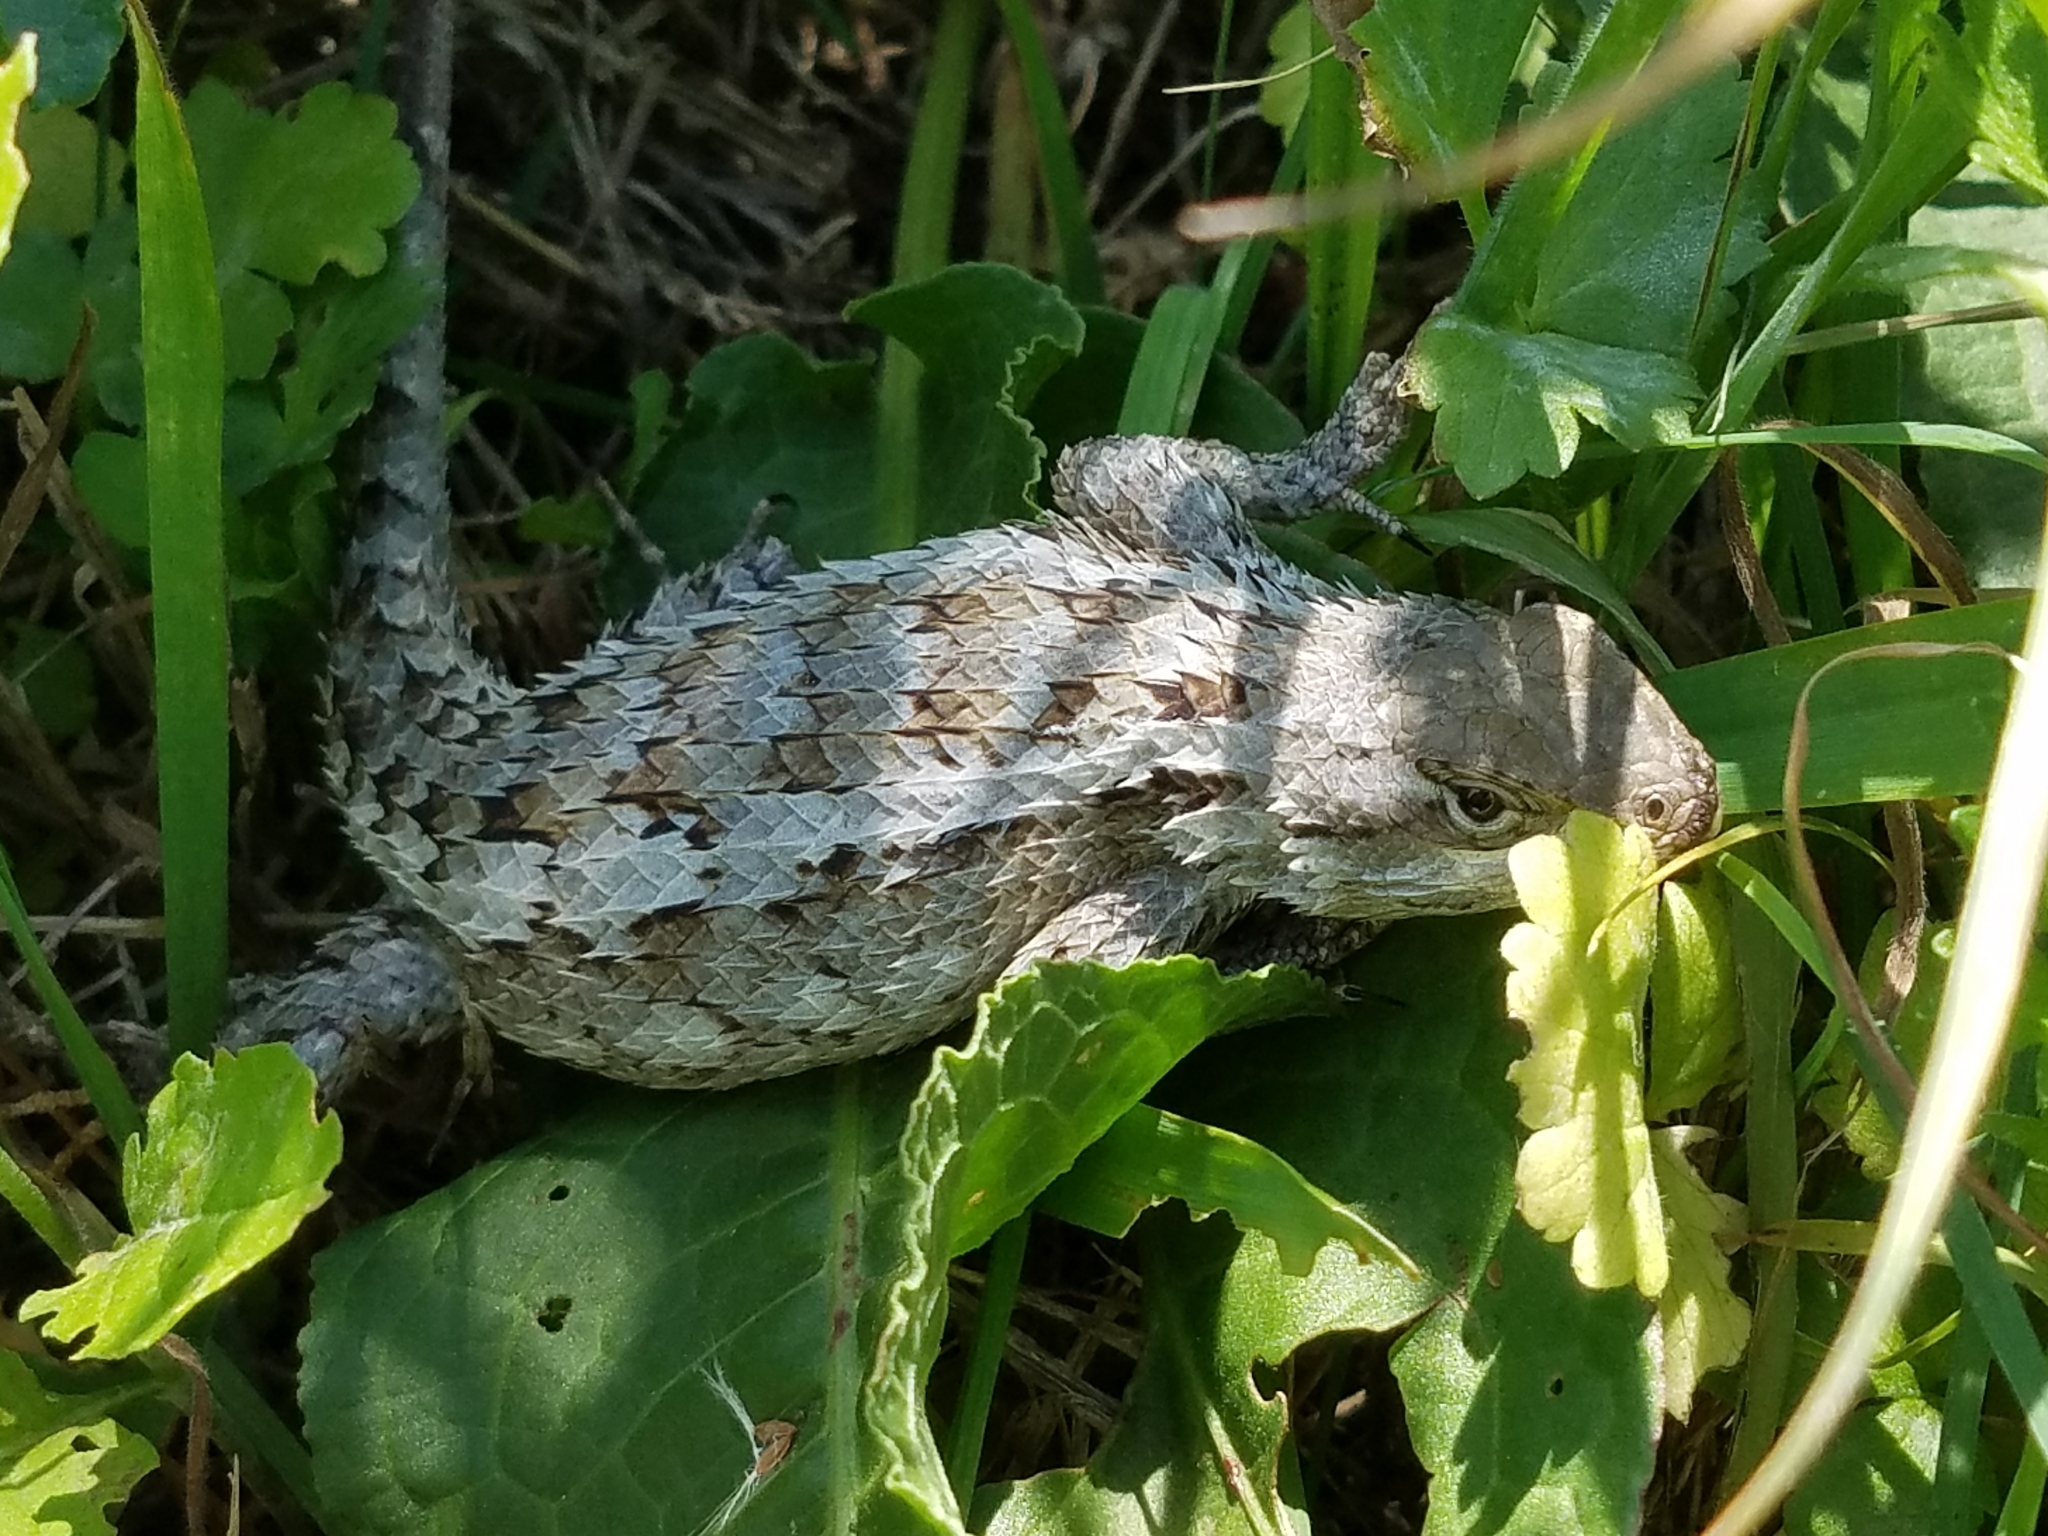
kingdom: Animalia
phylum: Chordata
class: Squamata
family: Phrynosomatidae
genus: Sceloporus
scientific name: Sceloporus olivaceus
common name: Texas spiny lizard
